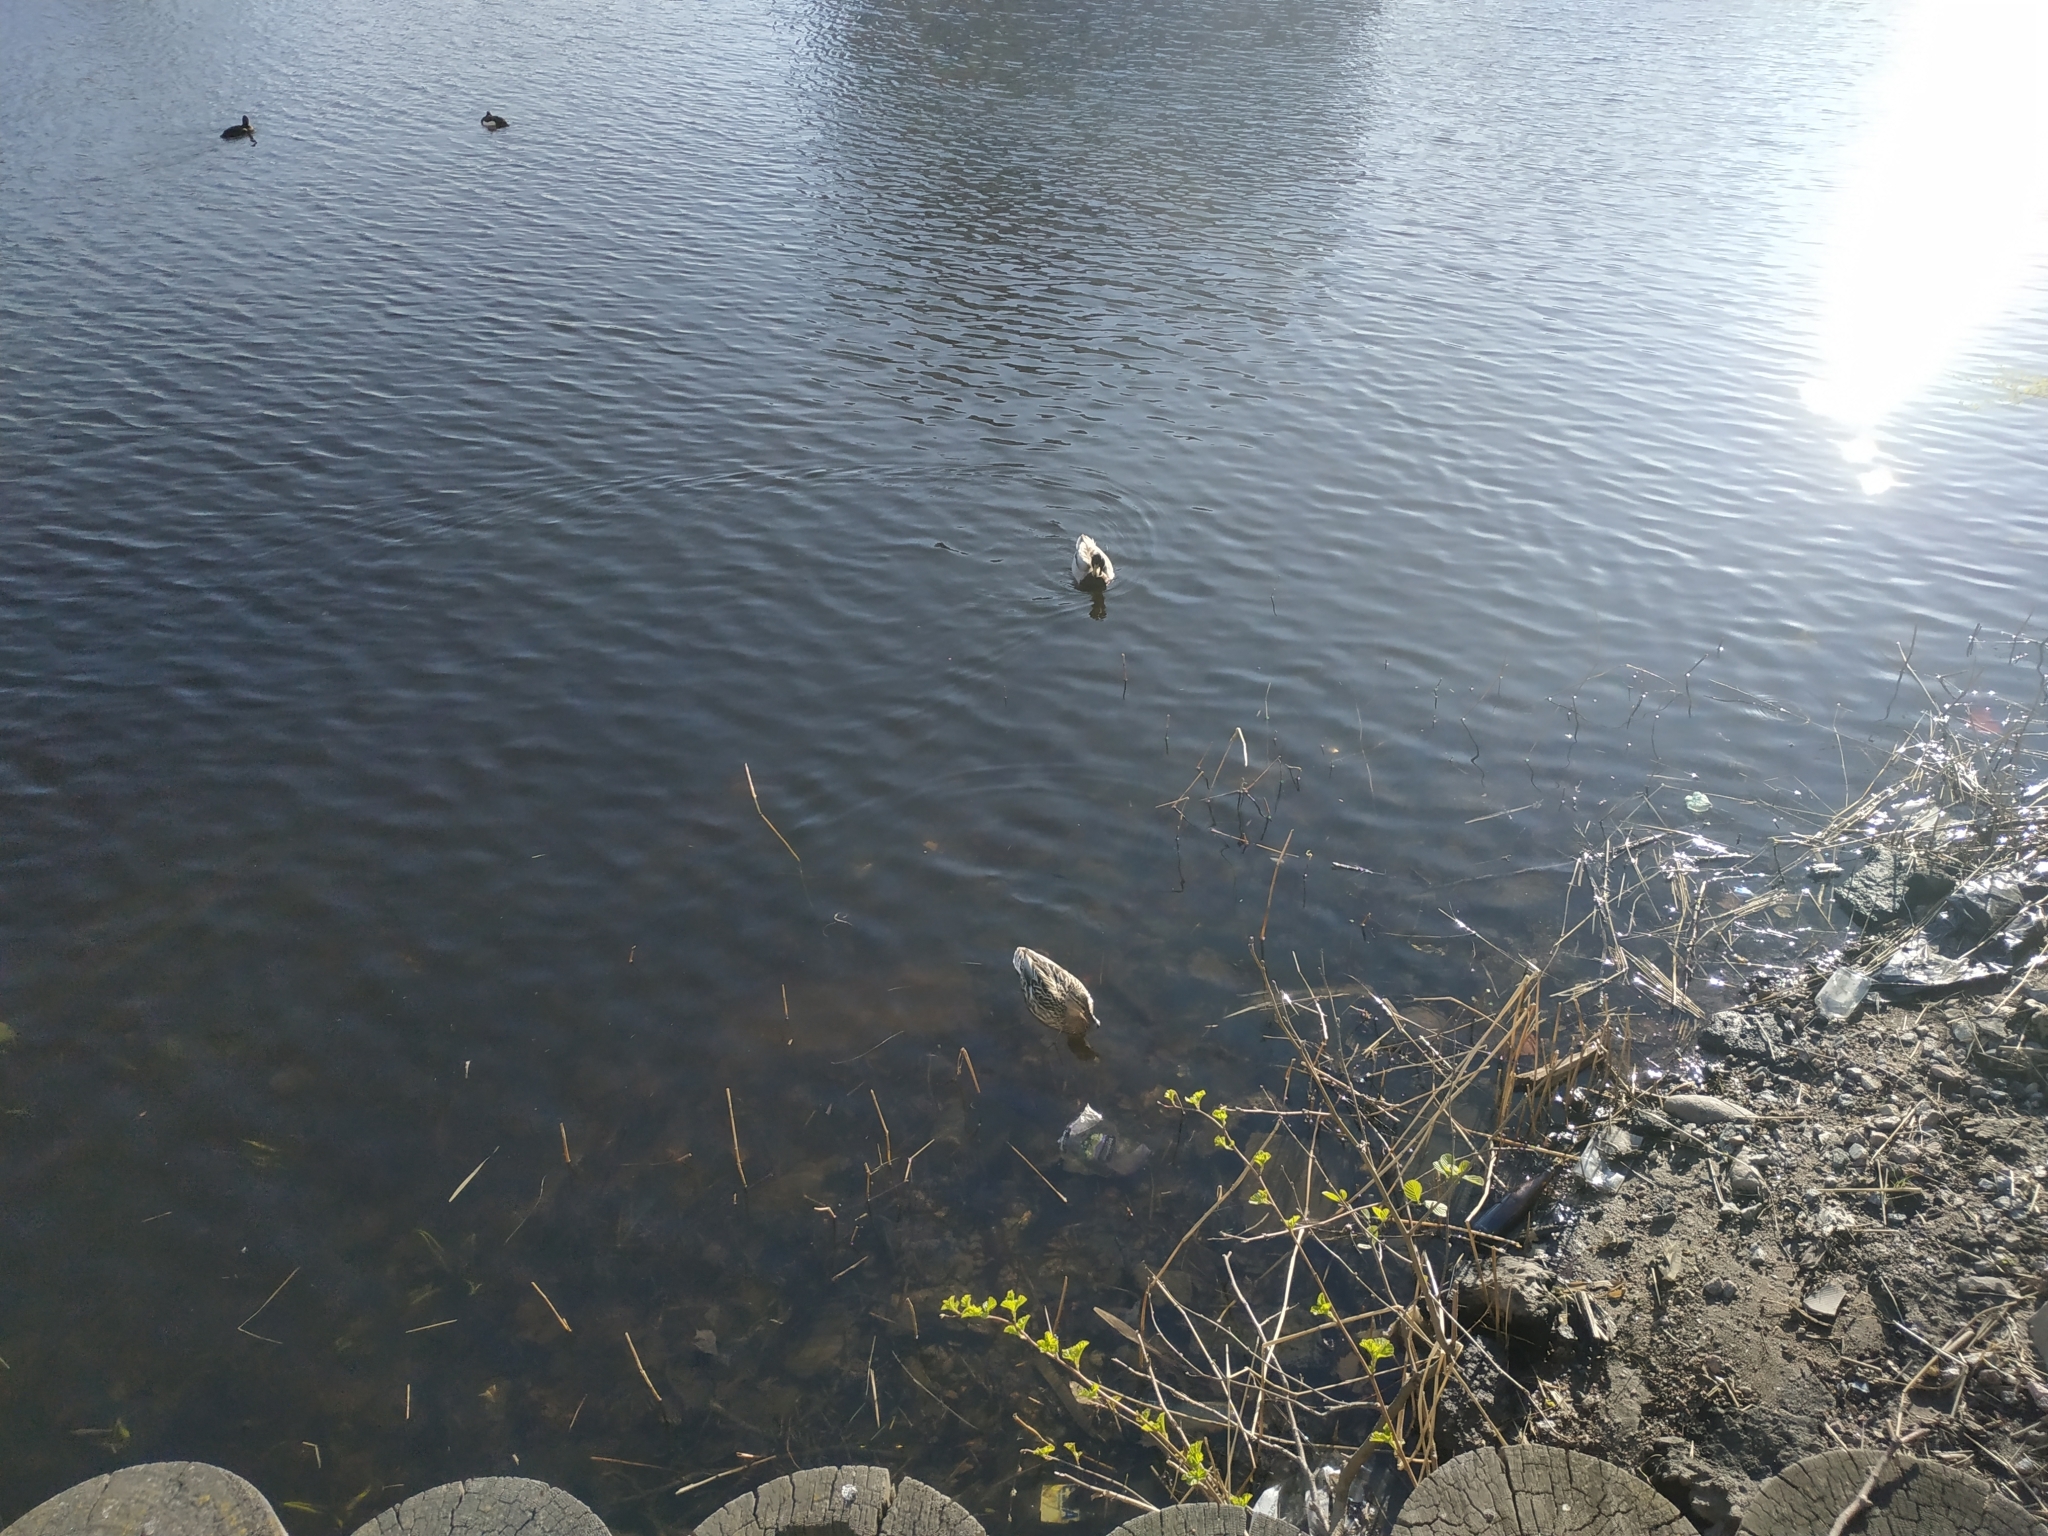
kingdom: Animalia
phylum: Chordata
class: Aves
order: Anseriformes
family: Anatidae
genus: Anas
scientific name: Anas platyrhynchos
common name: Mallard
